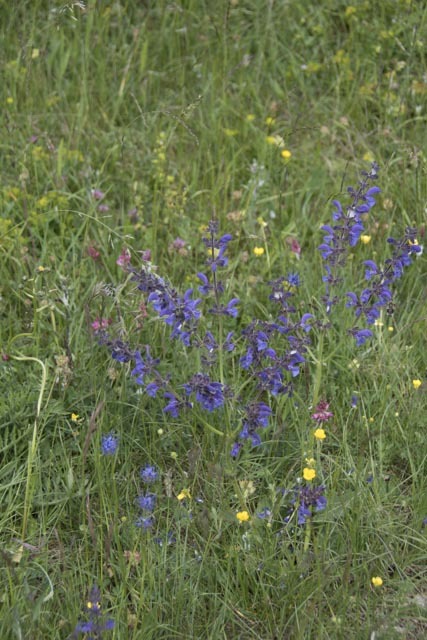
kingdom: Plantae
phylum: Tracheophyta
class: Magnoliopsida
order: Lamiales
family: Lamiaceae
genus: Salvia
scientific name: Salvia pratensis
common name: Meadow sage
